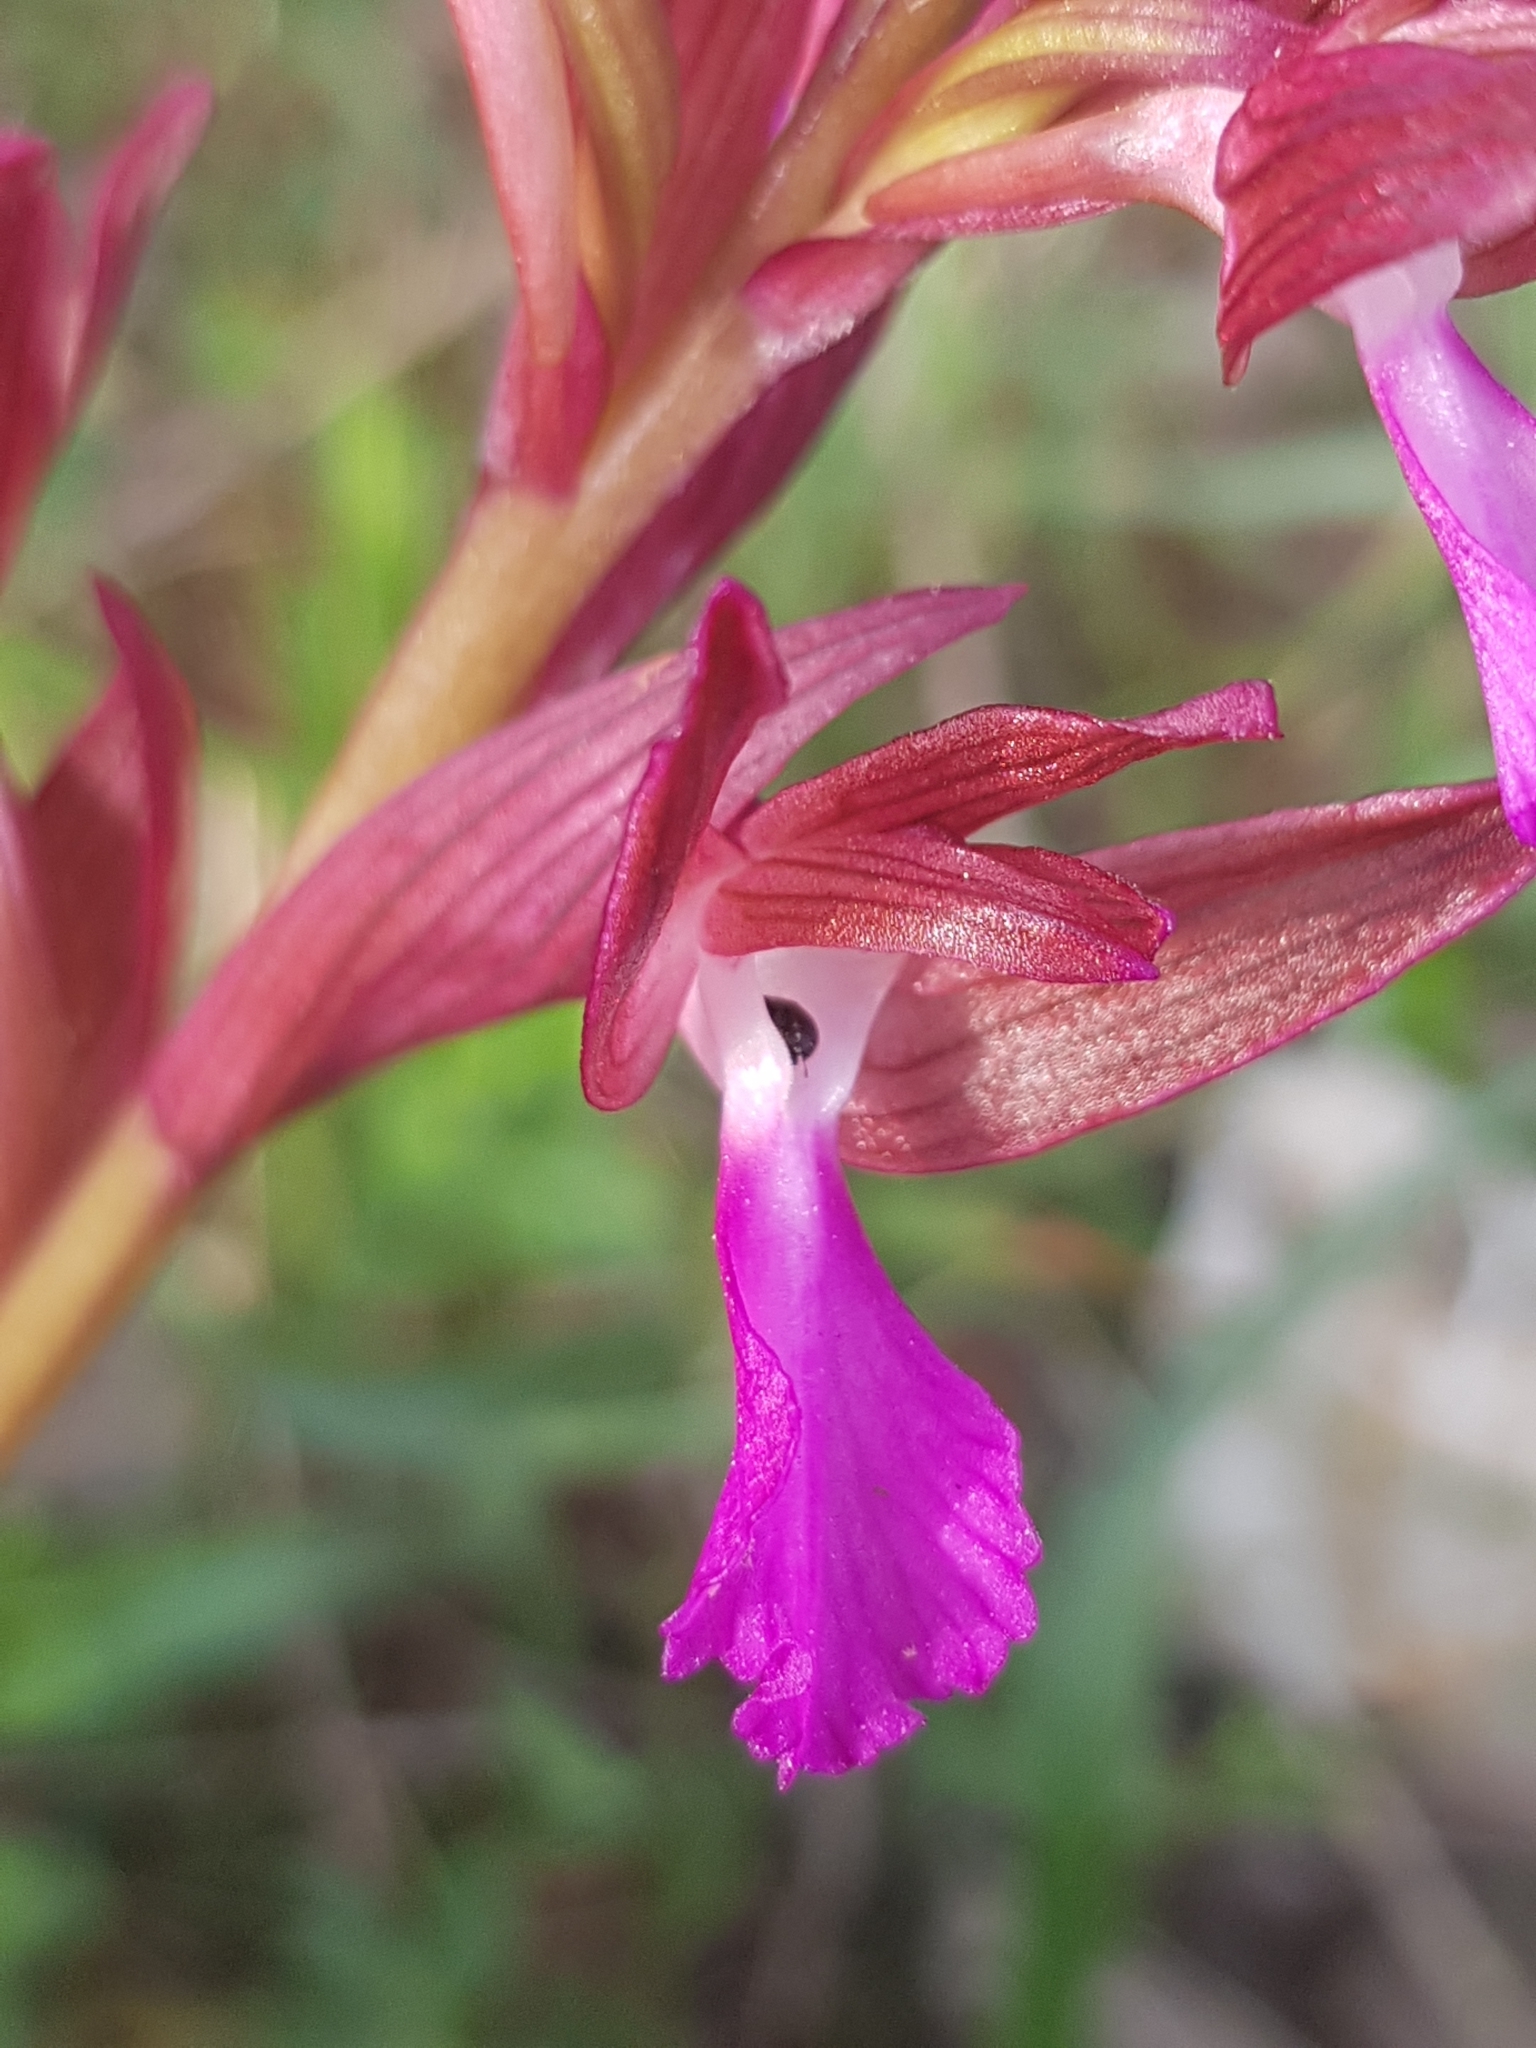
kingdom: Plantae
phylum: Tracheophyta
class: Liliopsida
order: Asparagales
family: Orchidaceae
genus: Anacamptis
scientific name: Anacamptis papilionacea
